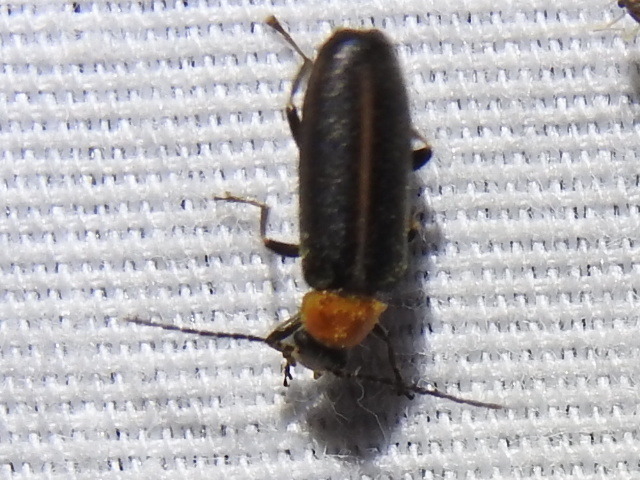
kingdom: Animalia
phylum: Arthropoda
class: Insecta
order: Coleoptera
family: Melandryidae
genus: Osphya
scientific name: Osphya varians
